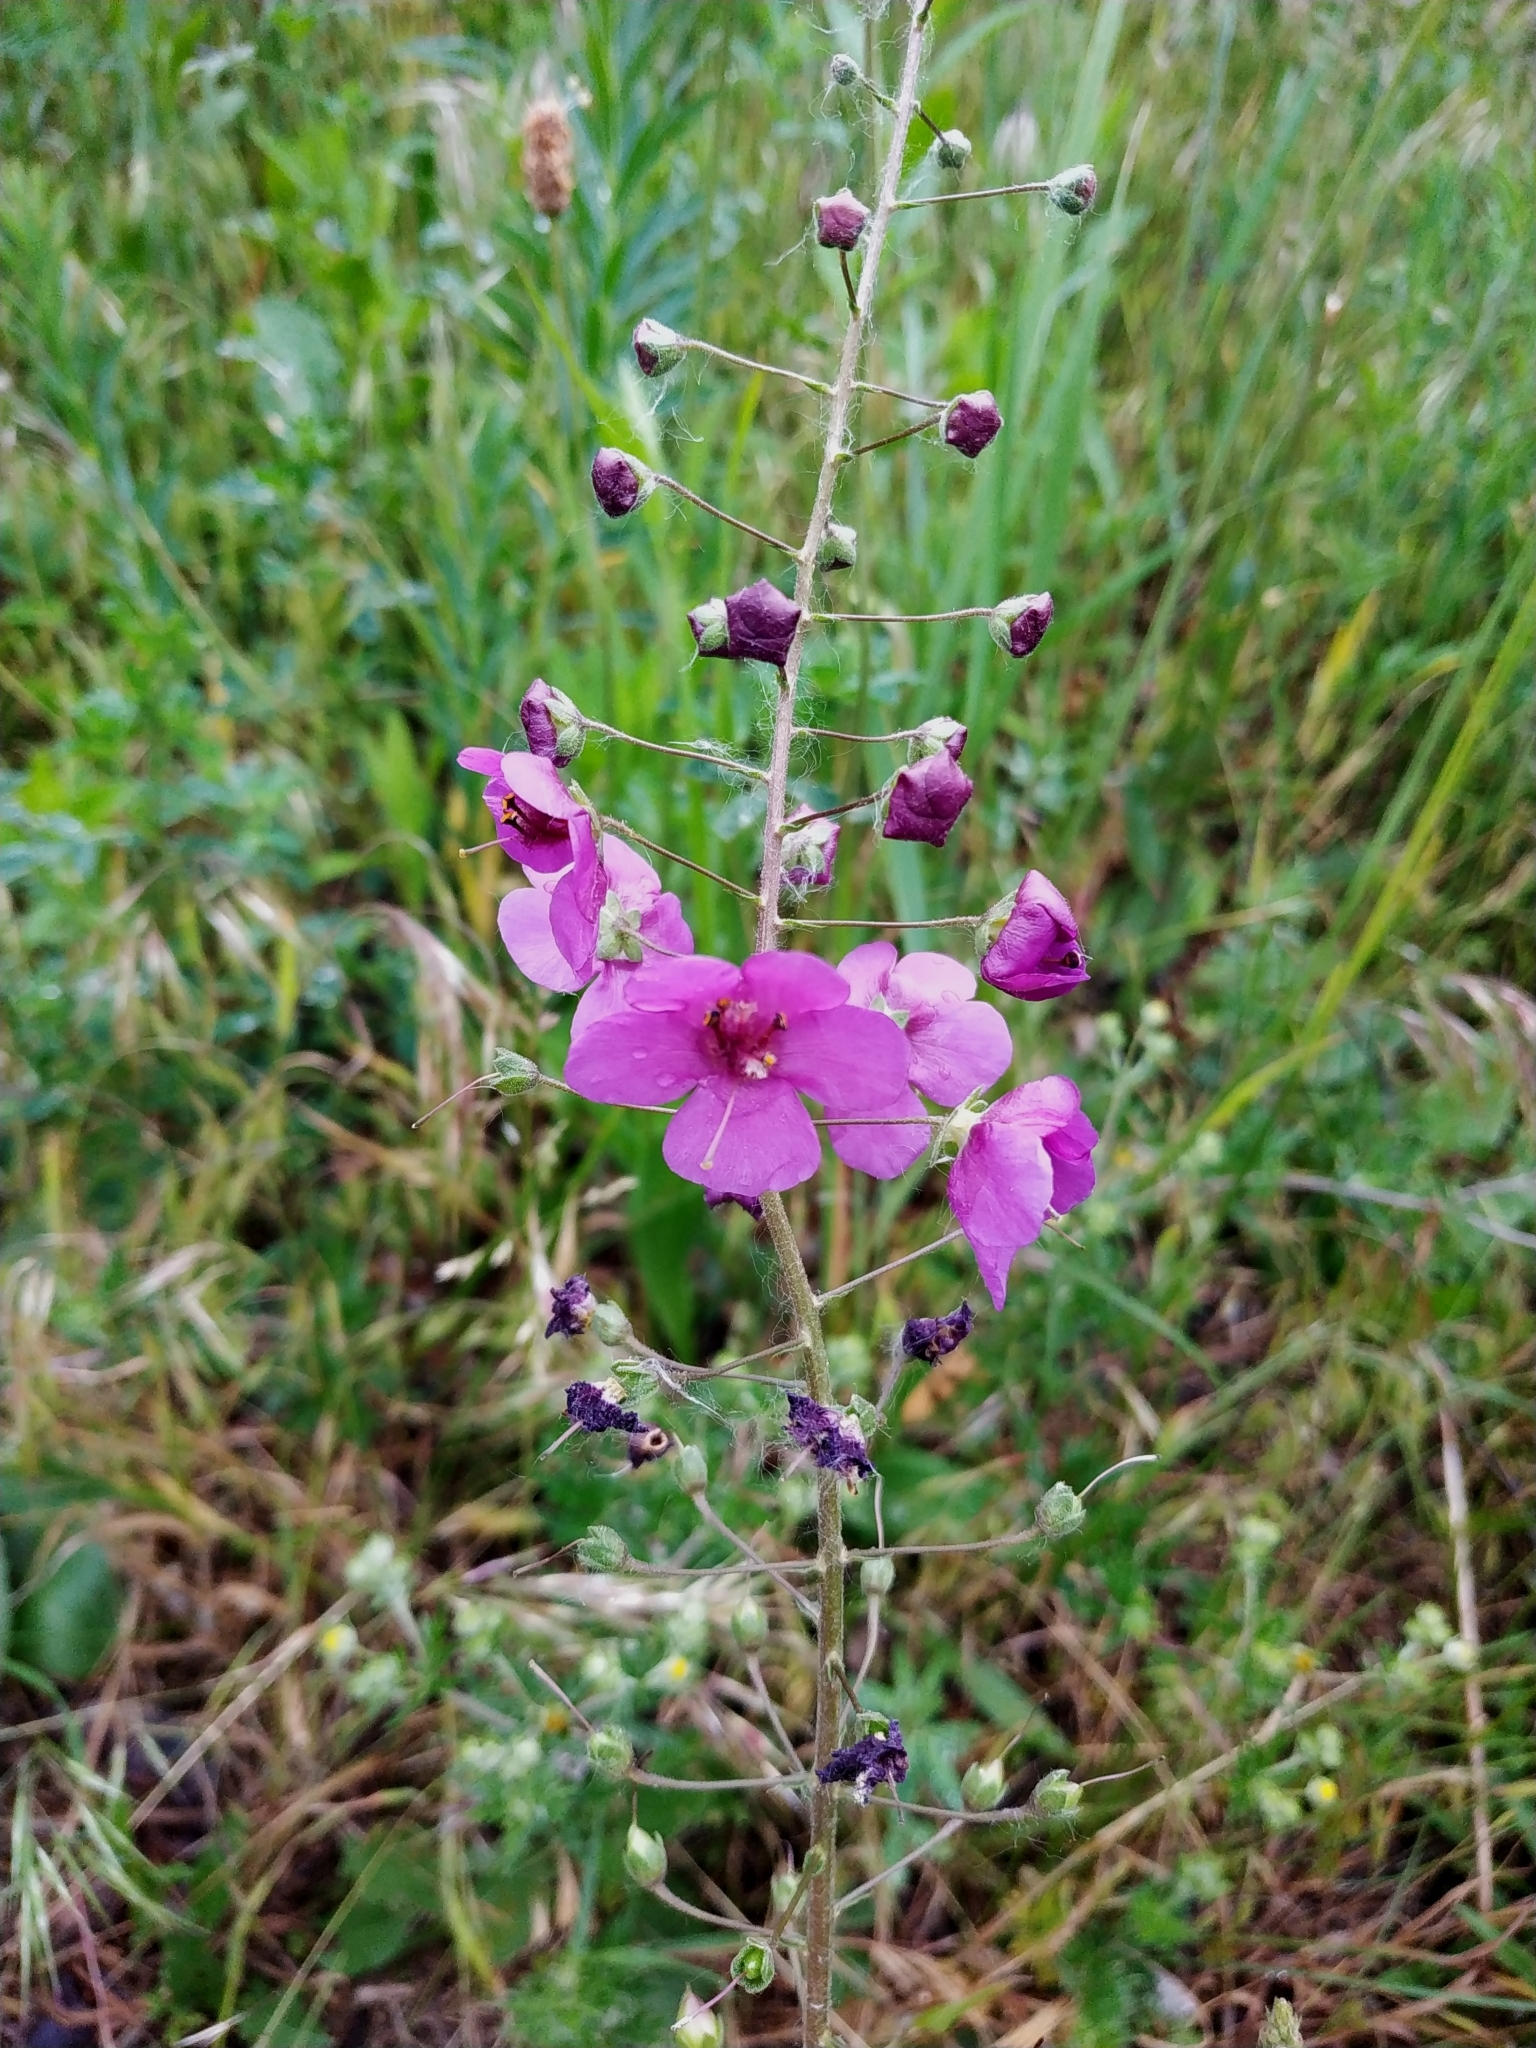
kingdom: Plantae
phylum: Tracheophyta
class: Magnoliopsida
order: Lamiales
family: Scrophulariaceae
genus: Verbascum
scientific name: Verbascum phoeniceum
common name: Purple mullein
